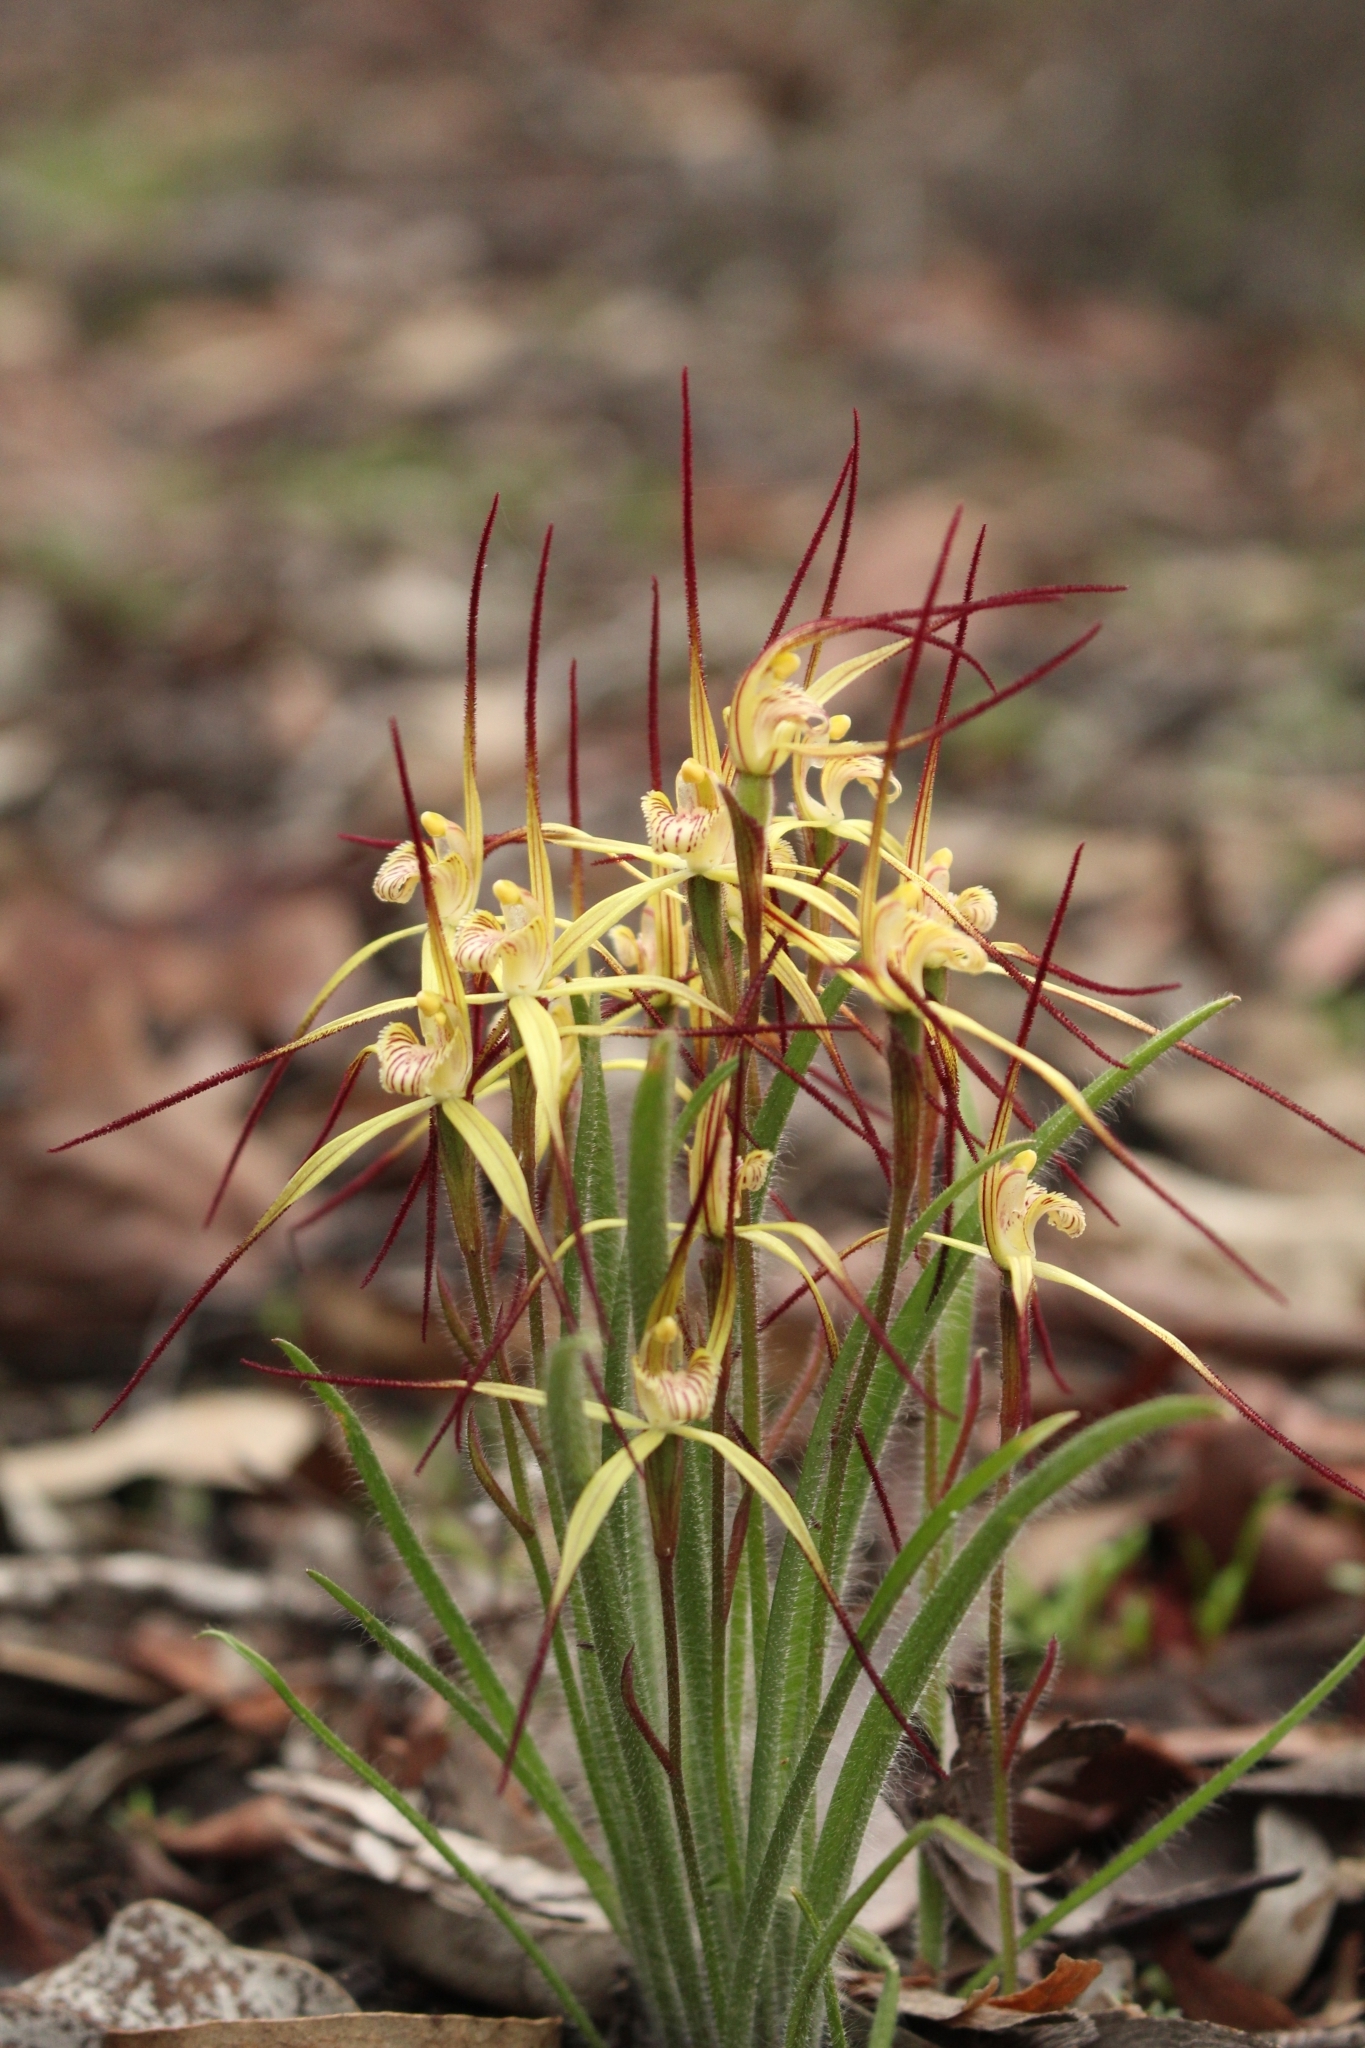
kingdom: Plantae
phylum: Tracheophyta
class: Liliopsida
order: Asparagales
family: Orchidaceae
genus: Caladenia
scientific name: Caladenia xantha
